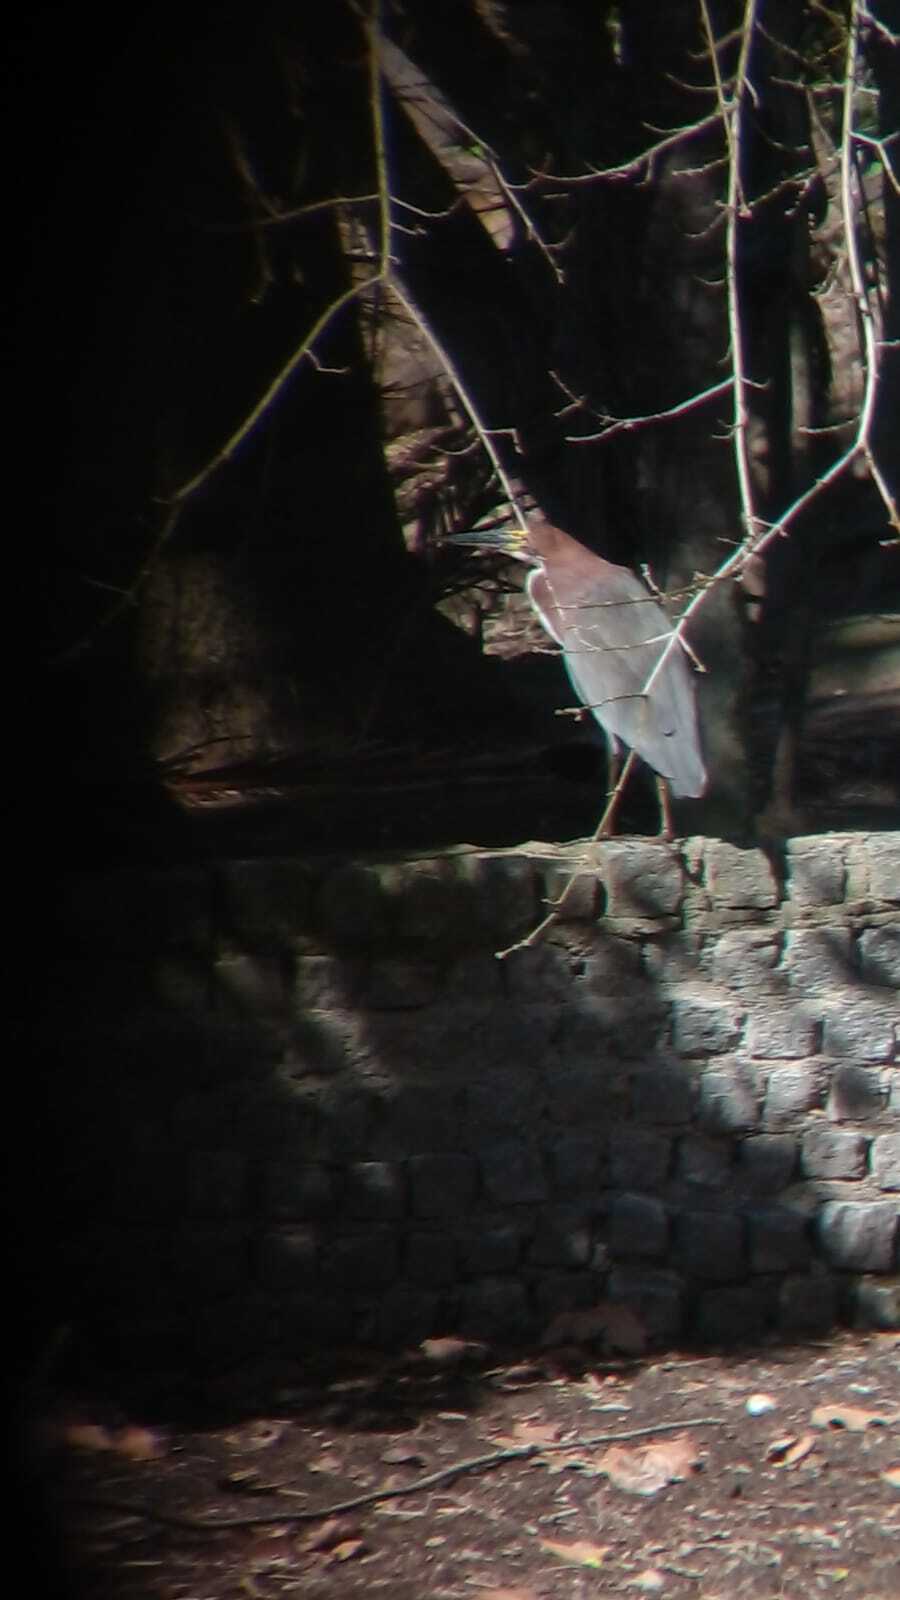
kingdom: Animalia
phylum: Chordata
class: Aves
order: Pelecaniformes
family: Ardeidae
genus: Tigrisoma
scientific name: Tigrisoma lineatum
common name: Rufescent tiger-heron
